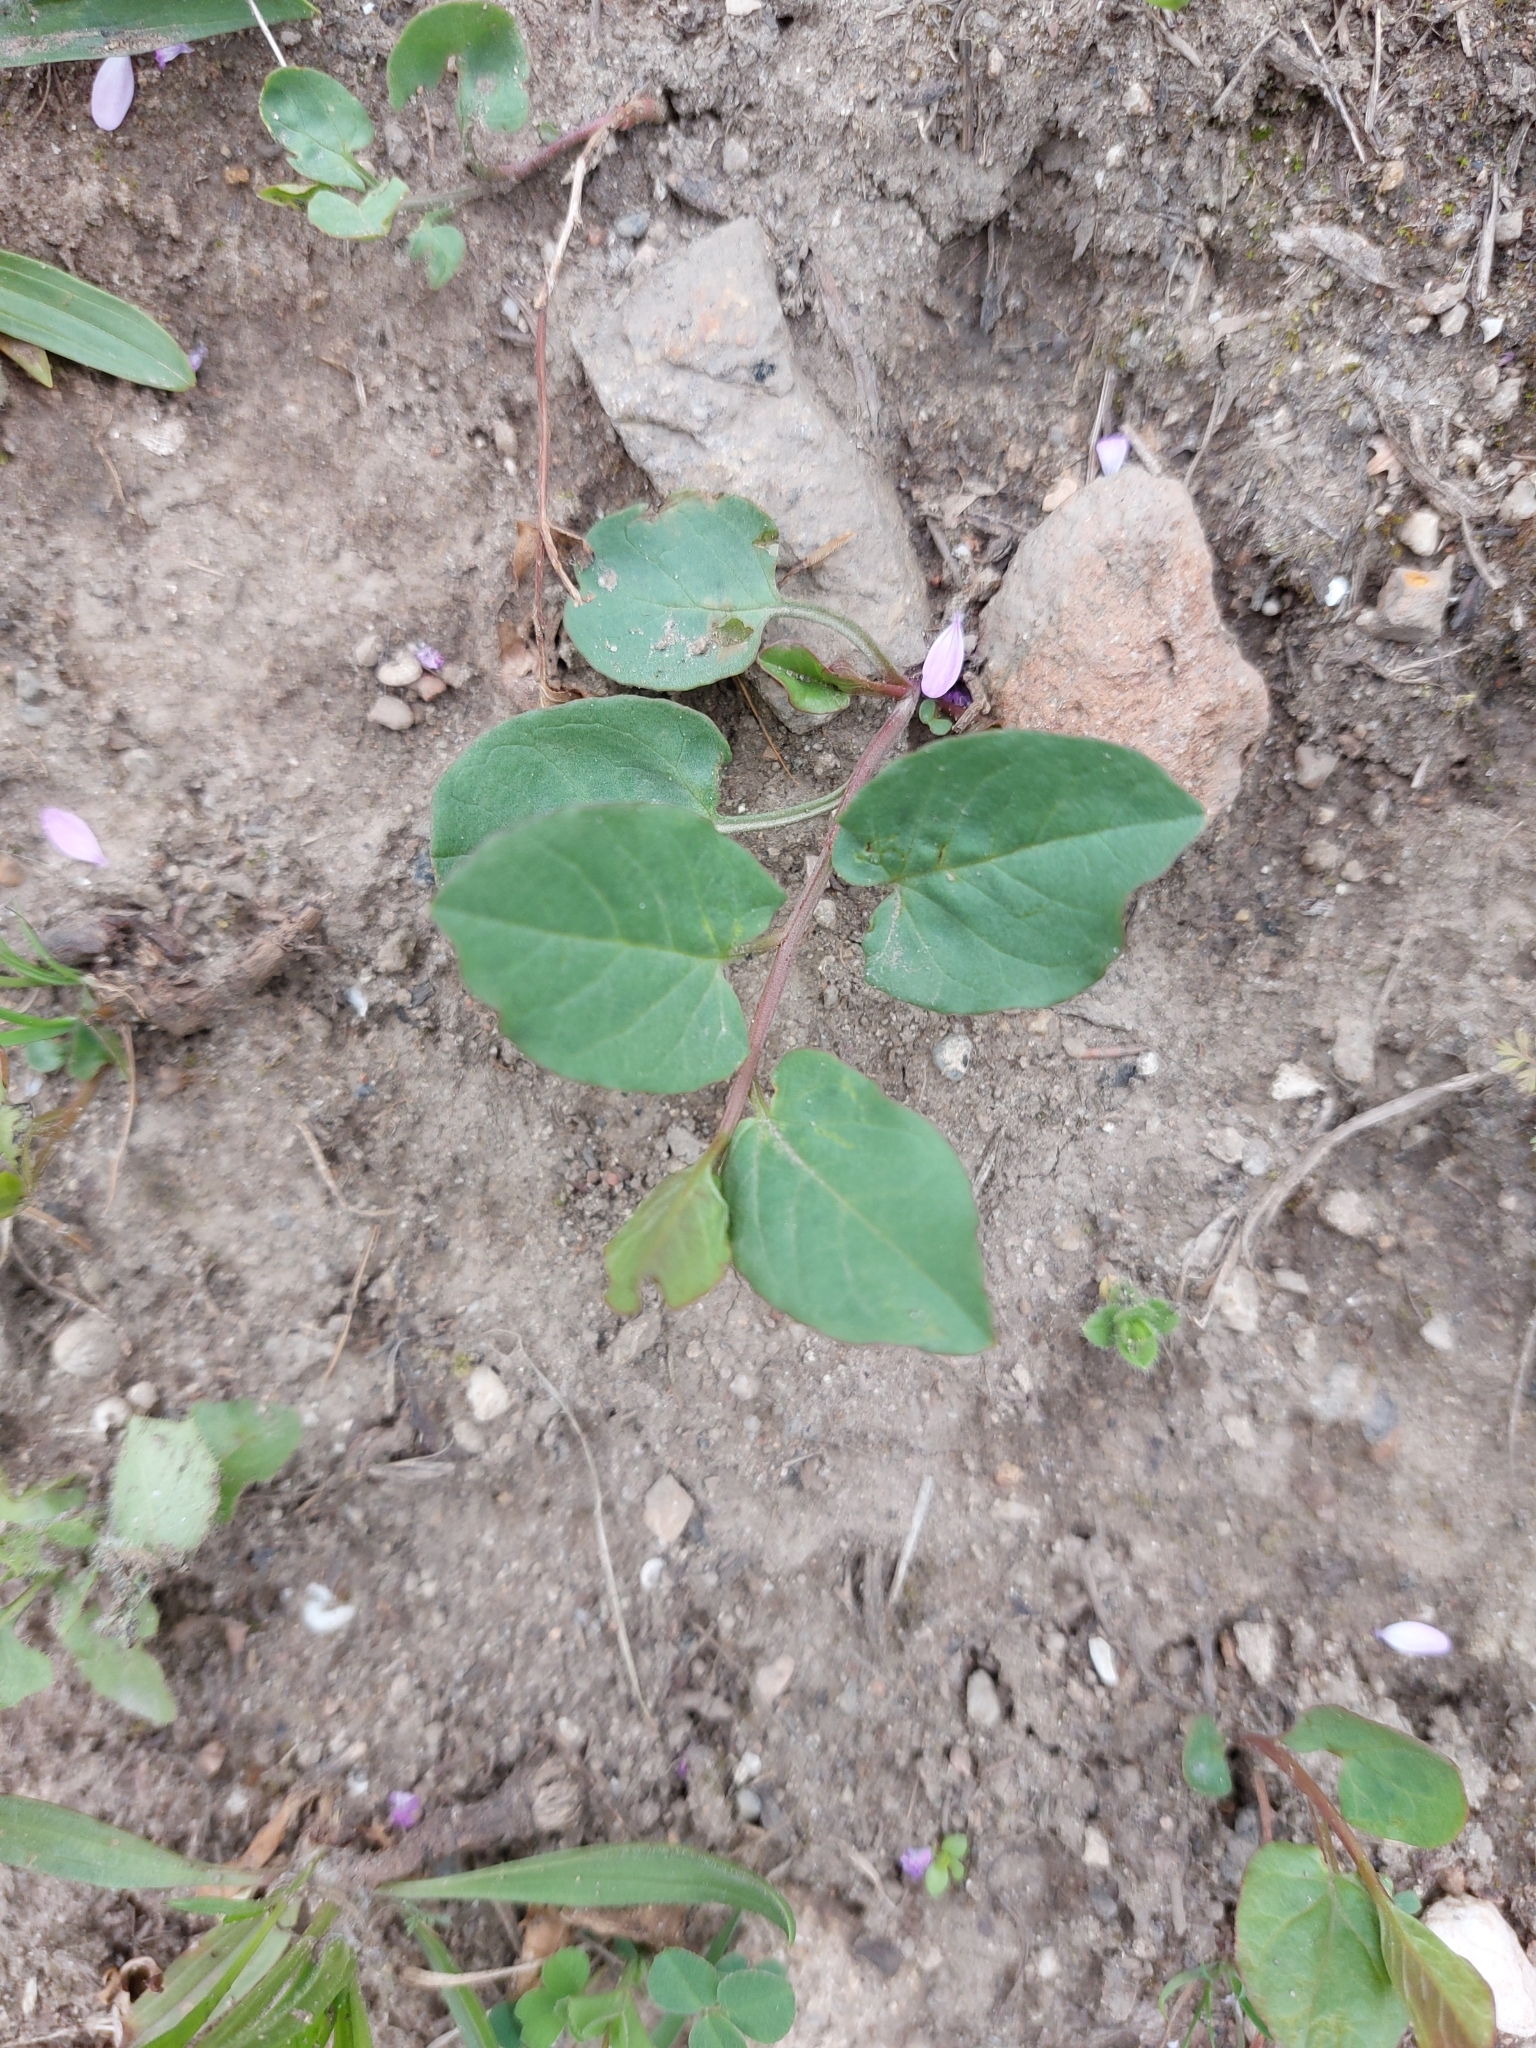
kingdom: Plantae
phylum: Tracheophyta
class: Magnoliopsida
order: Solanales
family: Convolvulaceae
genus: Convolvulus
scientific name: Convolvulus arvensis
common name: Field bindweed
